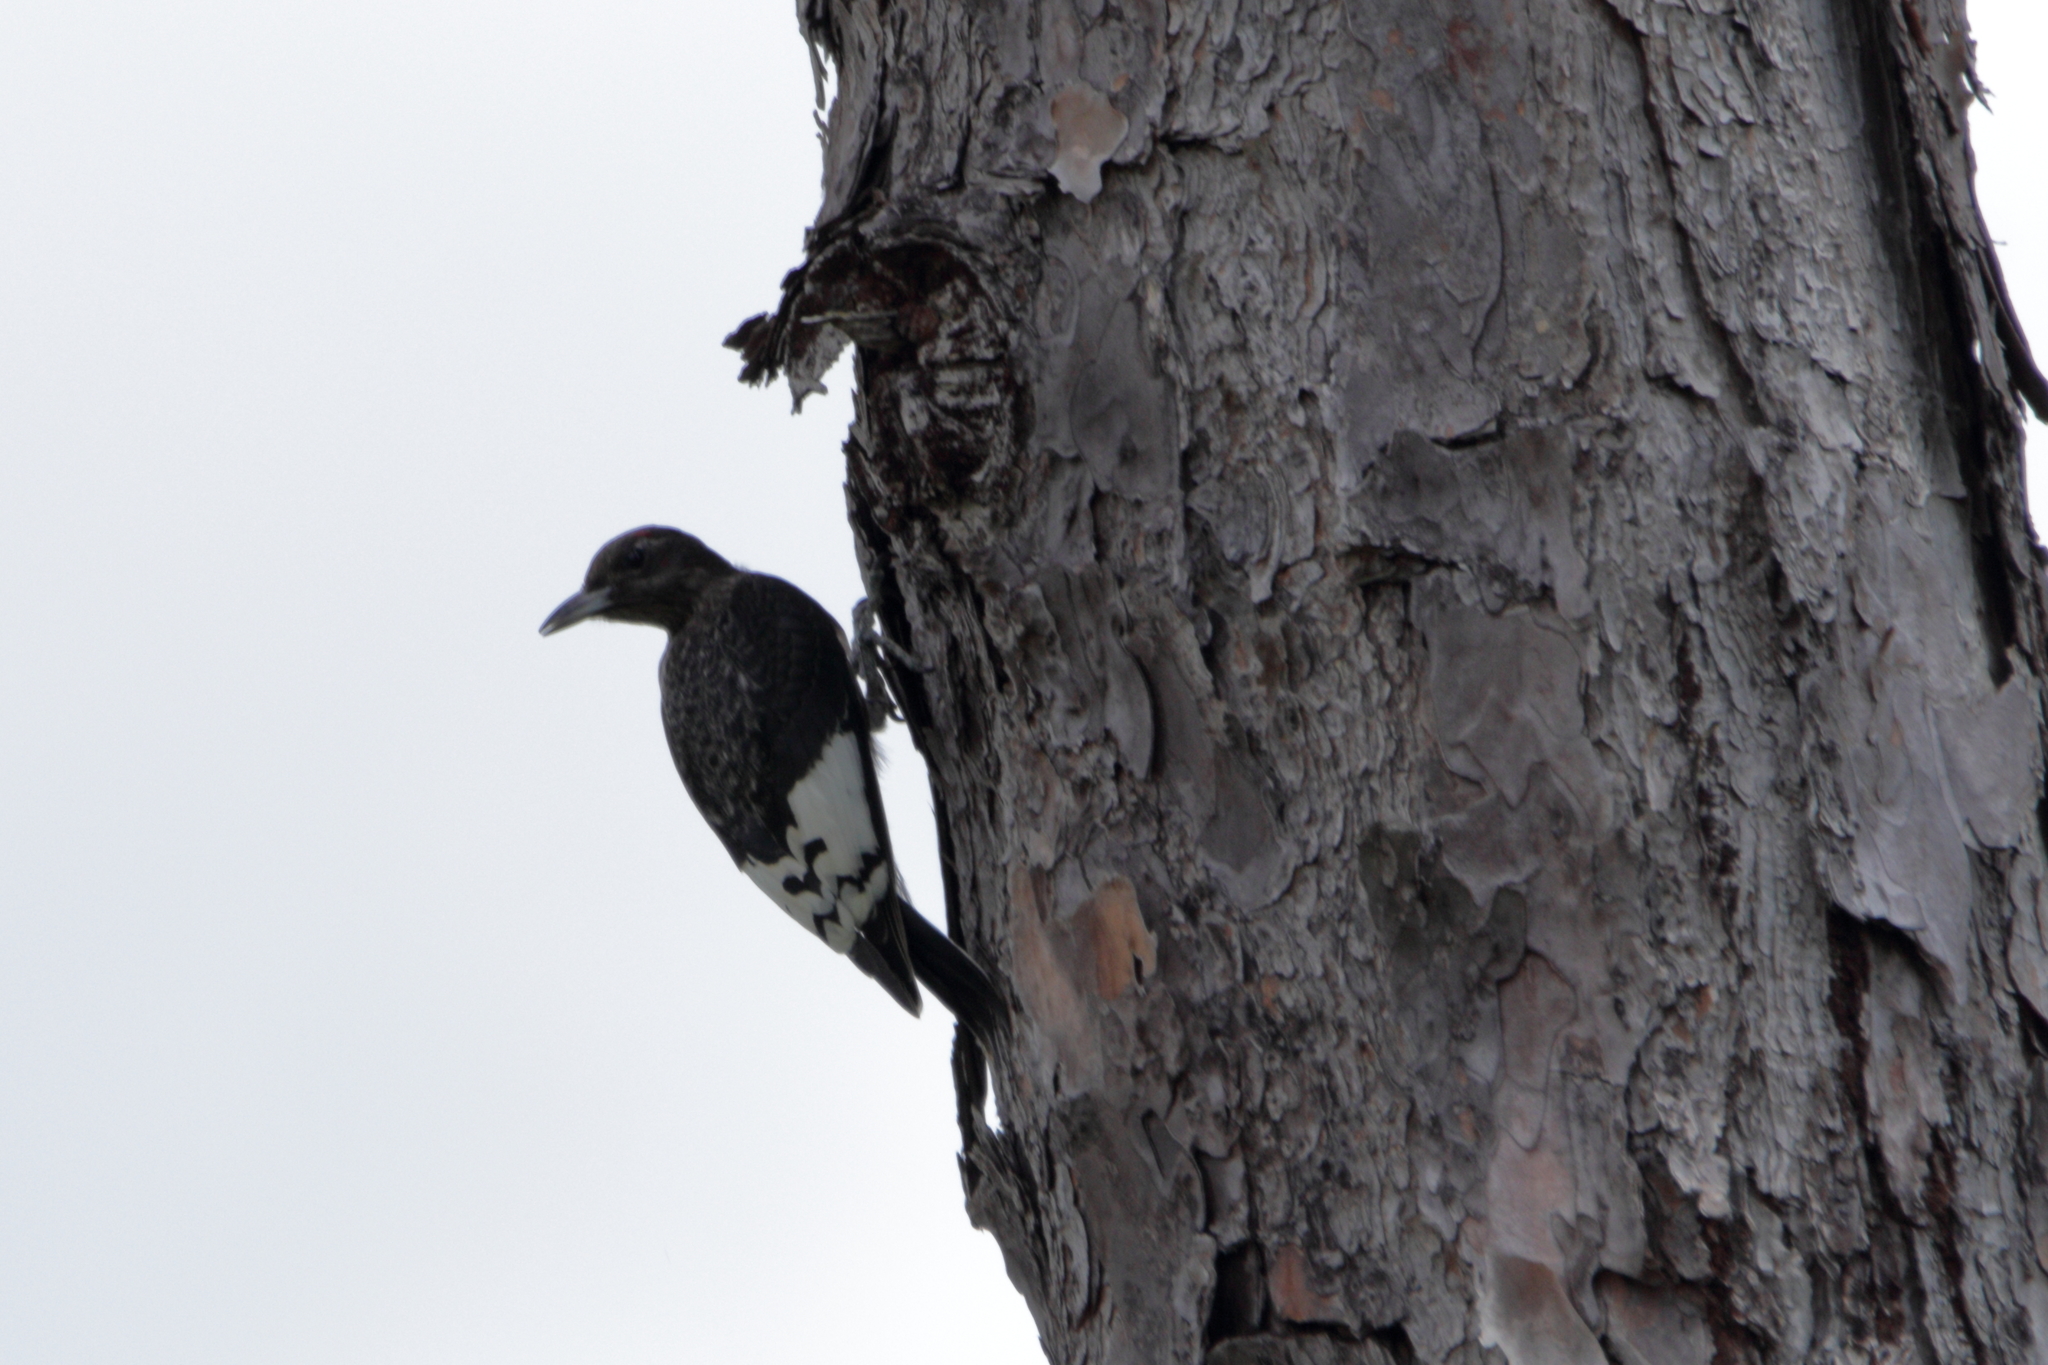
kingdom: Animalia
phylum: Chordata
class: Aves
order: Piciformes
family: Picidae
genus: Melanerpes
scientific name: Melanerpes erythrocephalus
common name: Red-headed woodpecker
